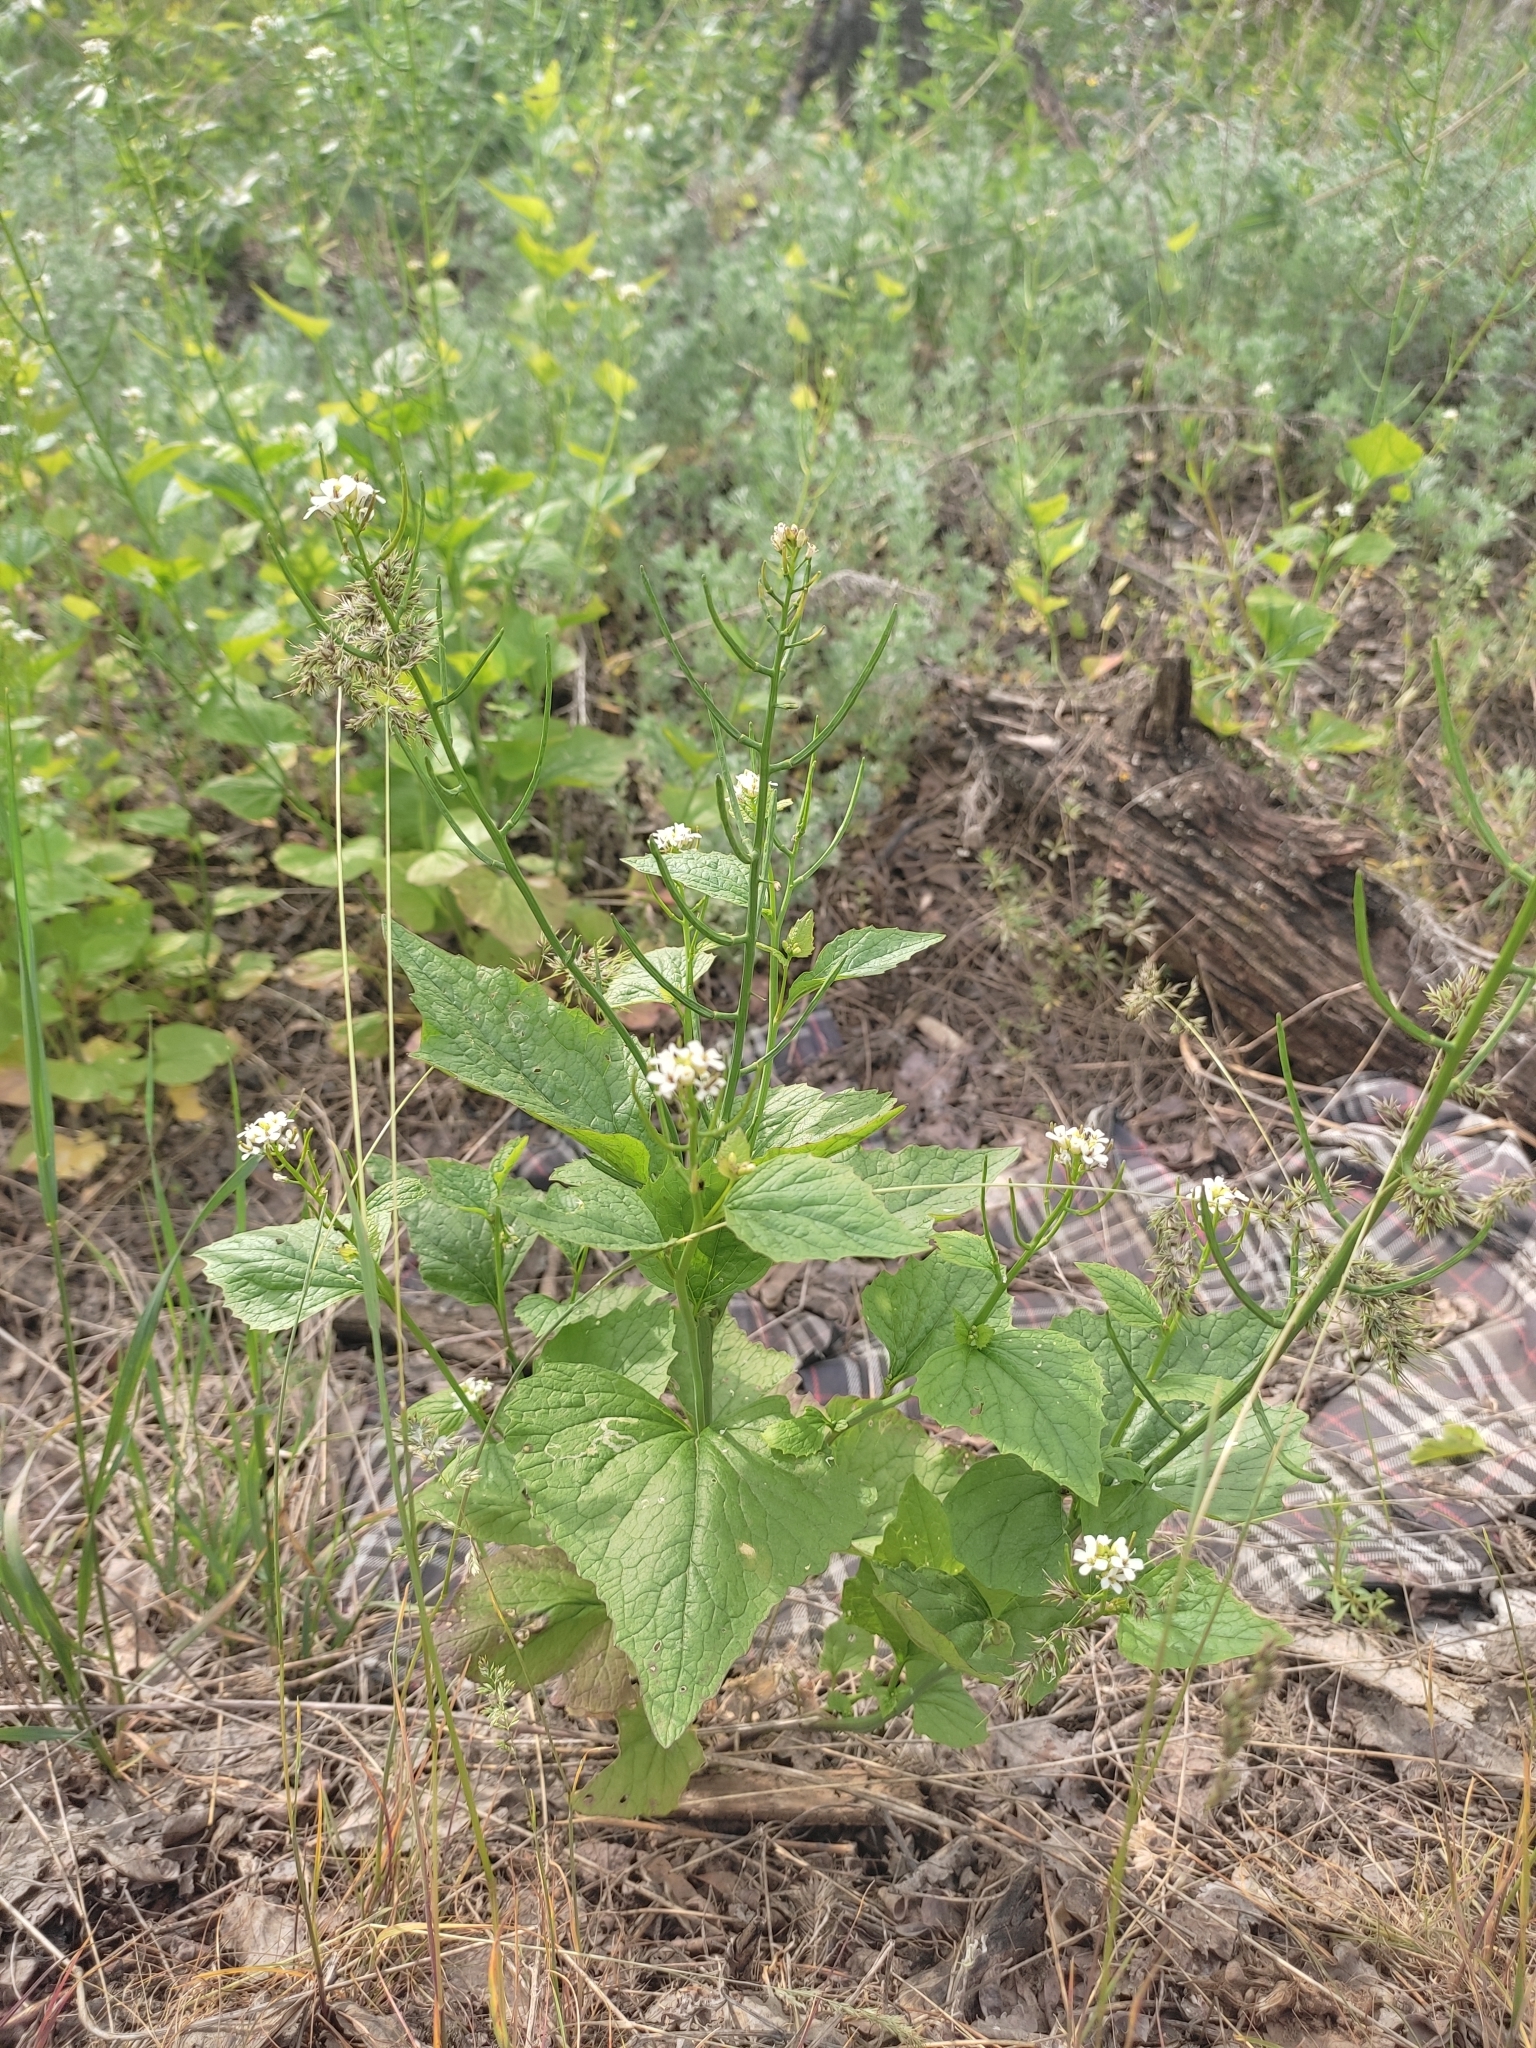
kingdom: Plantae
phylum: Tracheophyta
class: Magnoliopsida
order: Brassicales
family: Brassicaceae
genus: Alliaria
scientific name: Alliaria petiolata
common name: Garlic mustard
